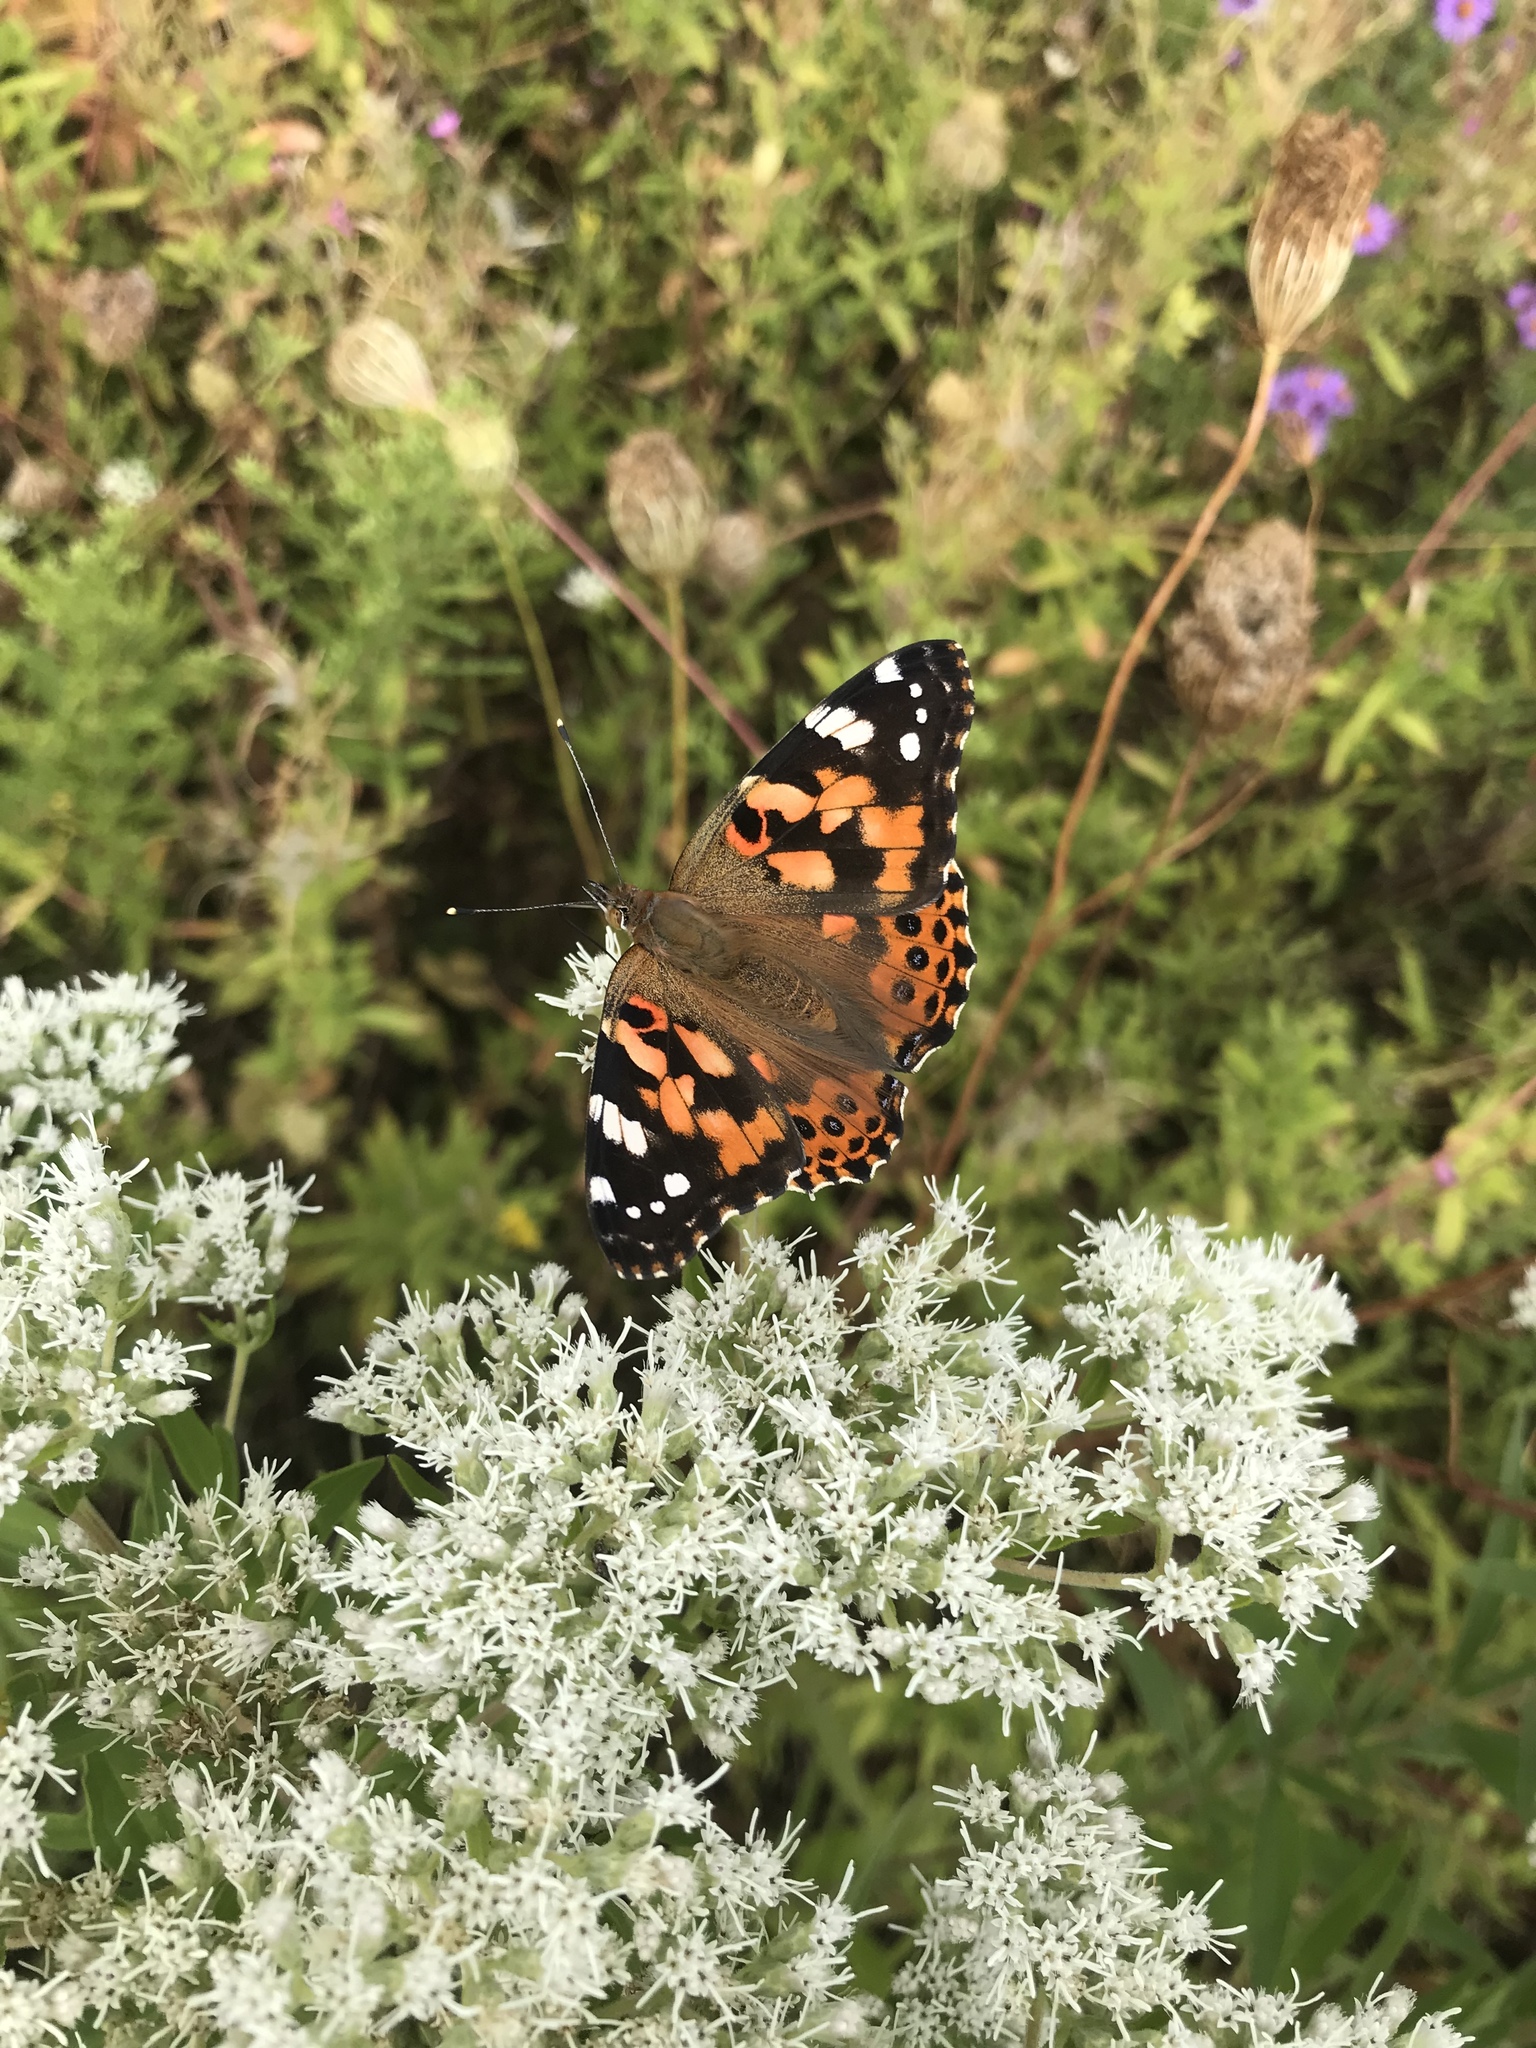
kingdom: Animalia
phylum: Arthropoda
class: Insecta
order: Lepidoptera
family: Nymphalidae
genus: Vanessa
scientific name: Vanessa cardui
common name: Painted lady
